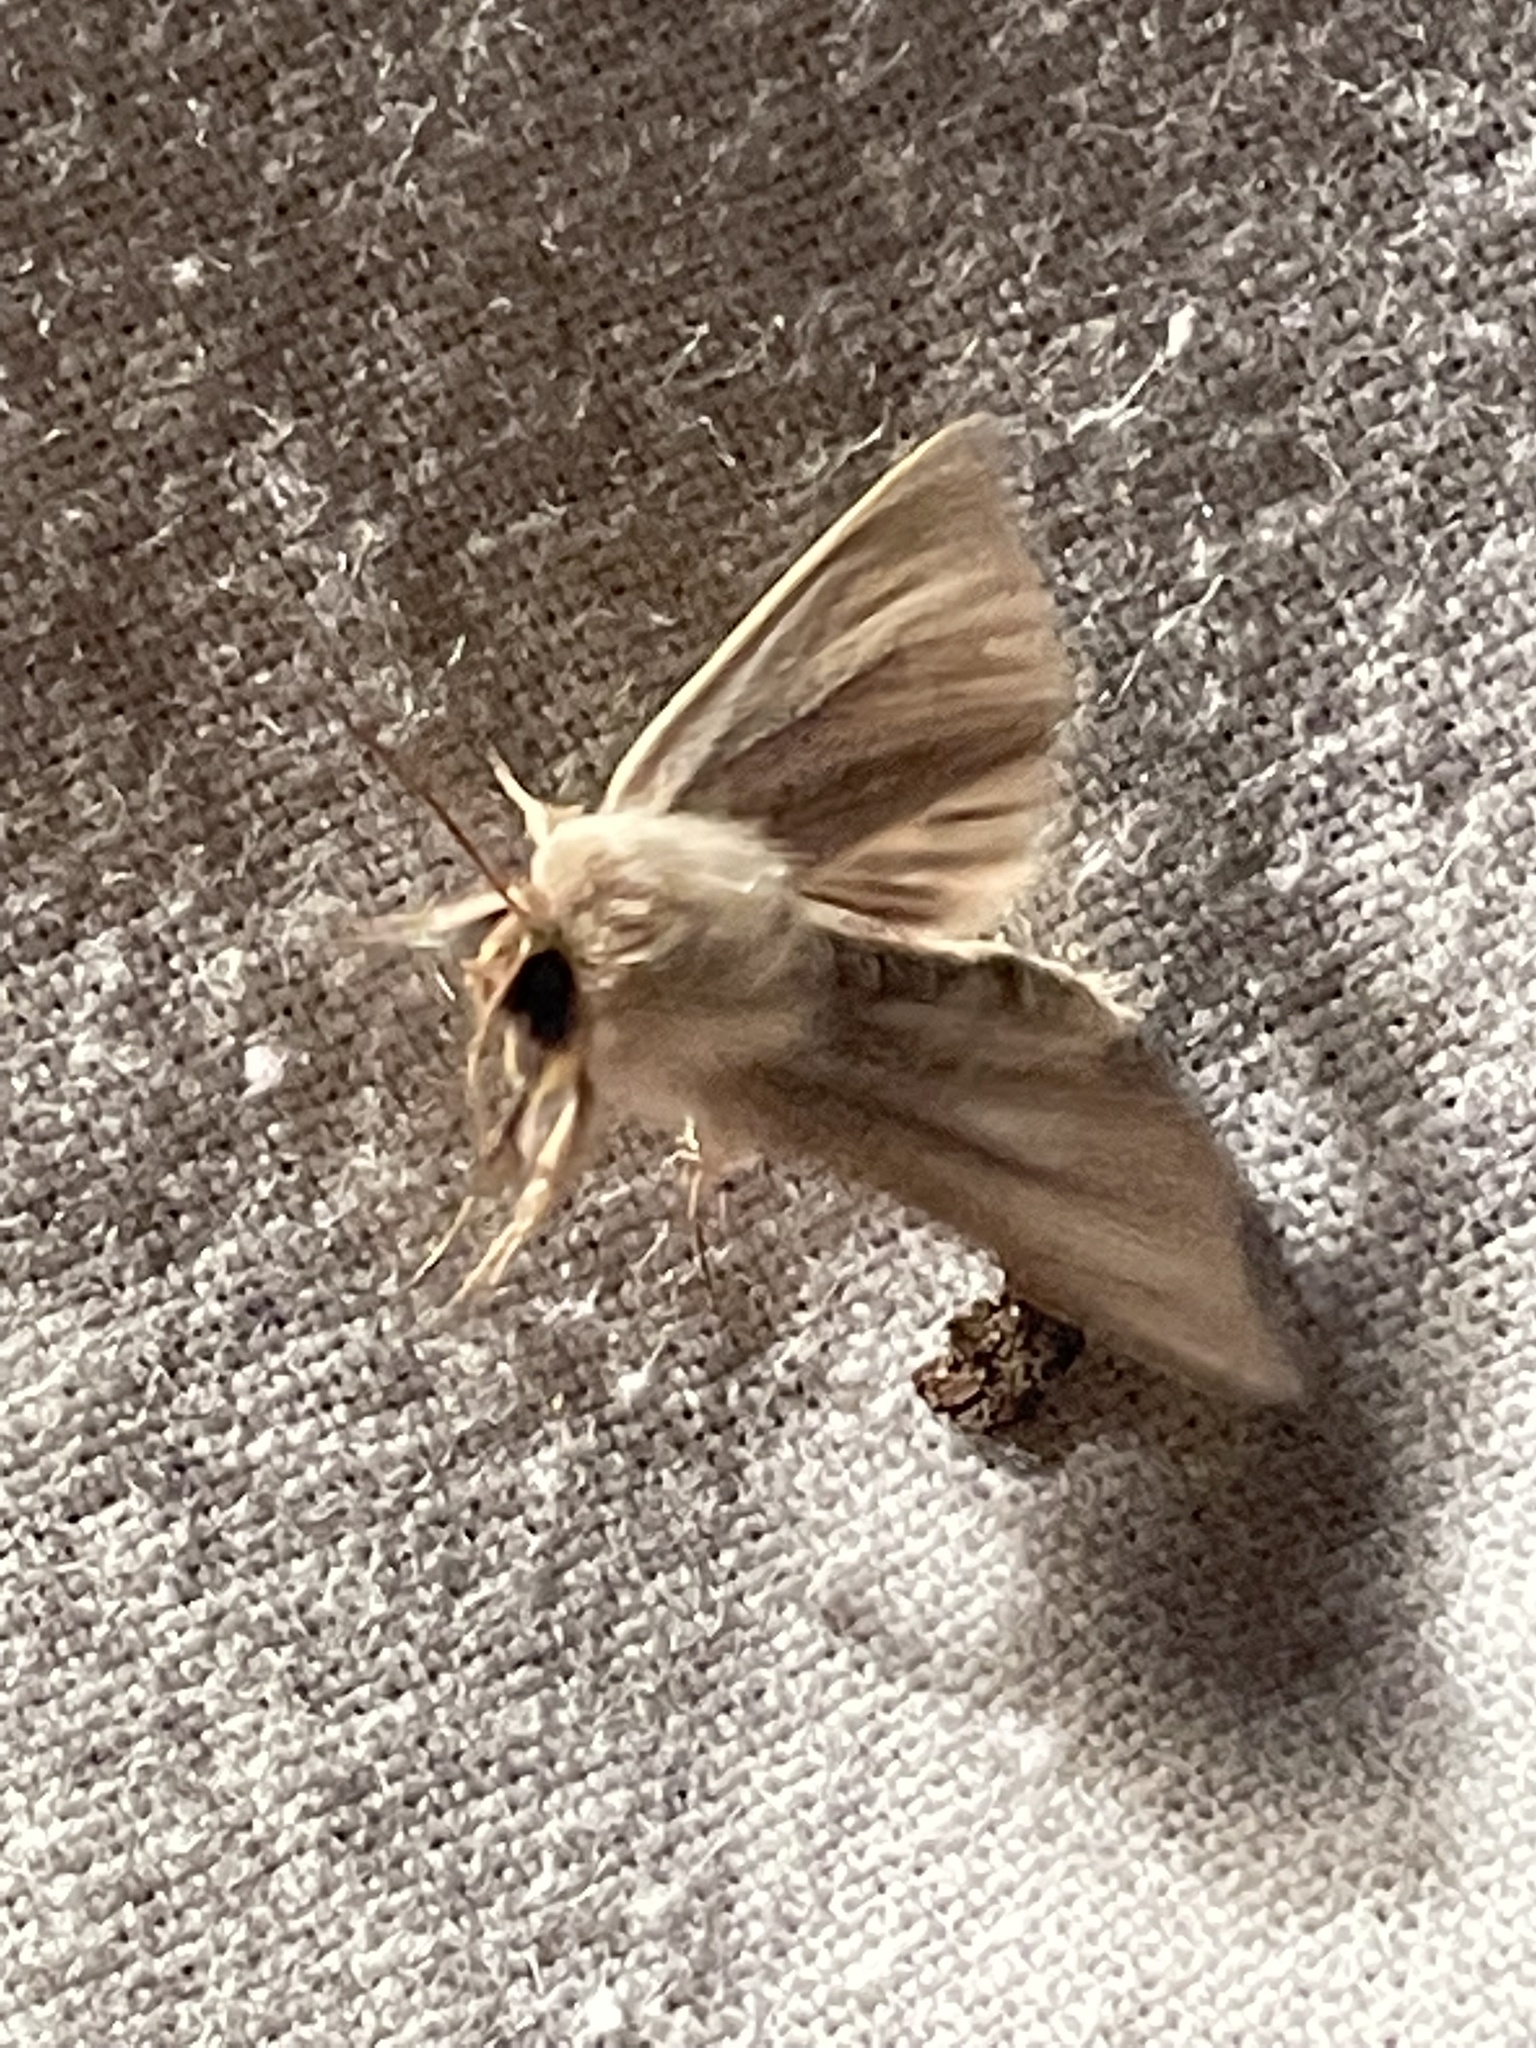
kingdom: Animalia
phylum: Arthropoda
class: Insecta
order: Lepidoptera
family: Noctuidae
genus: Sedina
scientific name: Sedina buettneri
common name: Blair's wainscot
